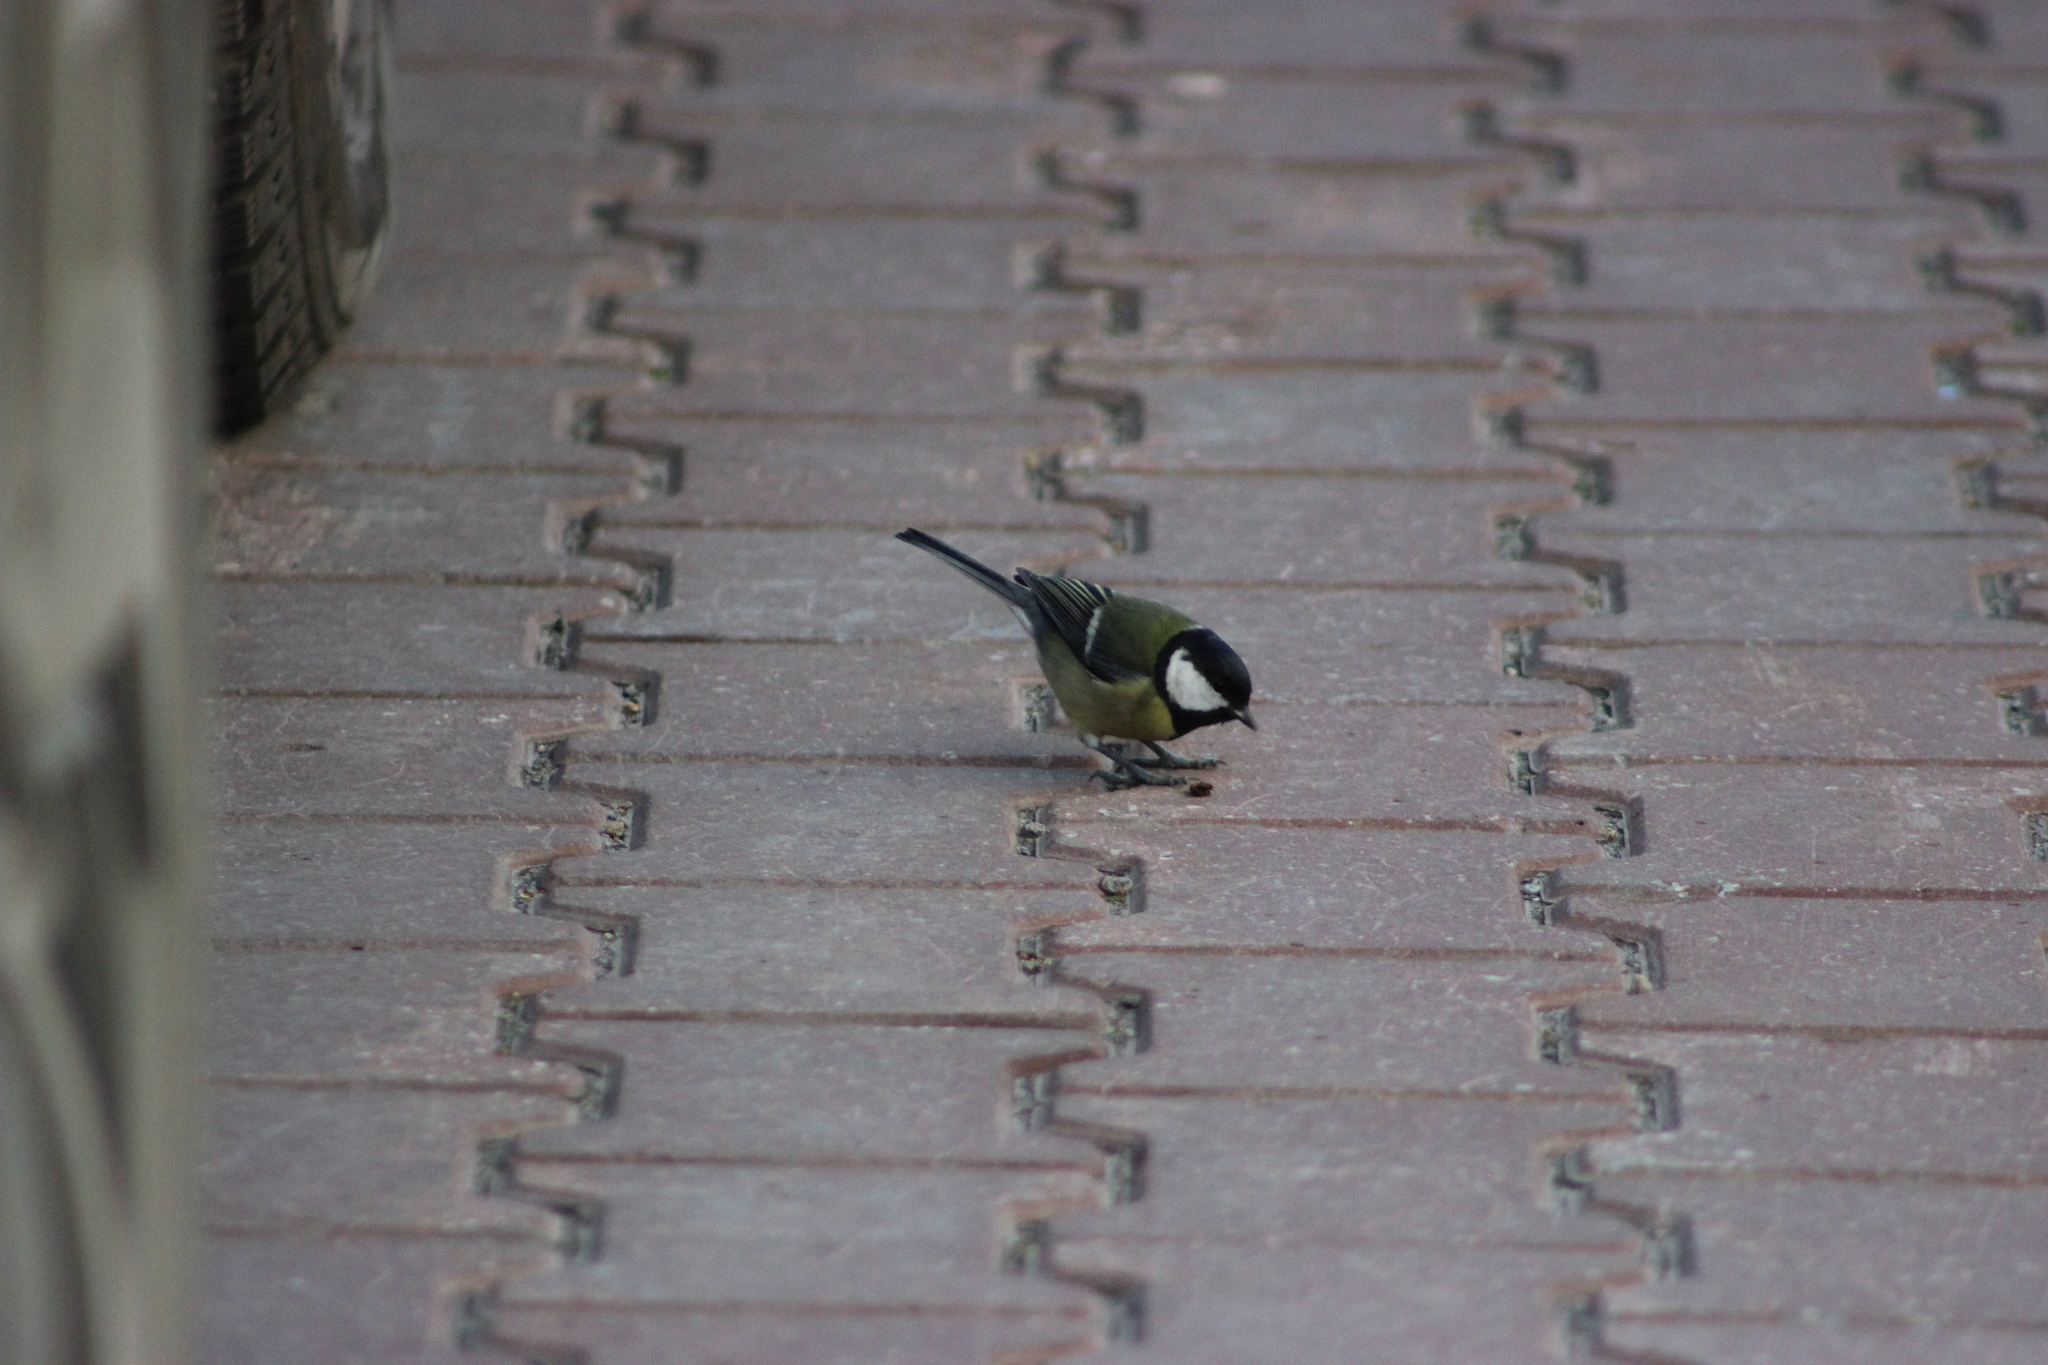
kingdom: Animalia
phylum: Chordata
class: Aves
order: Passeriformes
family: Paridae
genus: Parus
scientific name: Parus major
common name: Great tit
